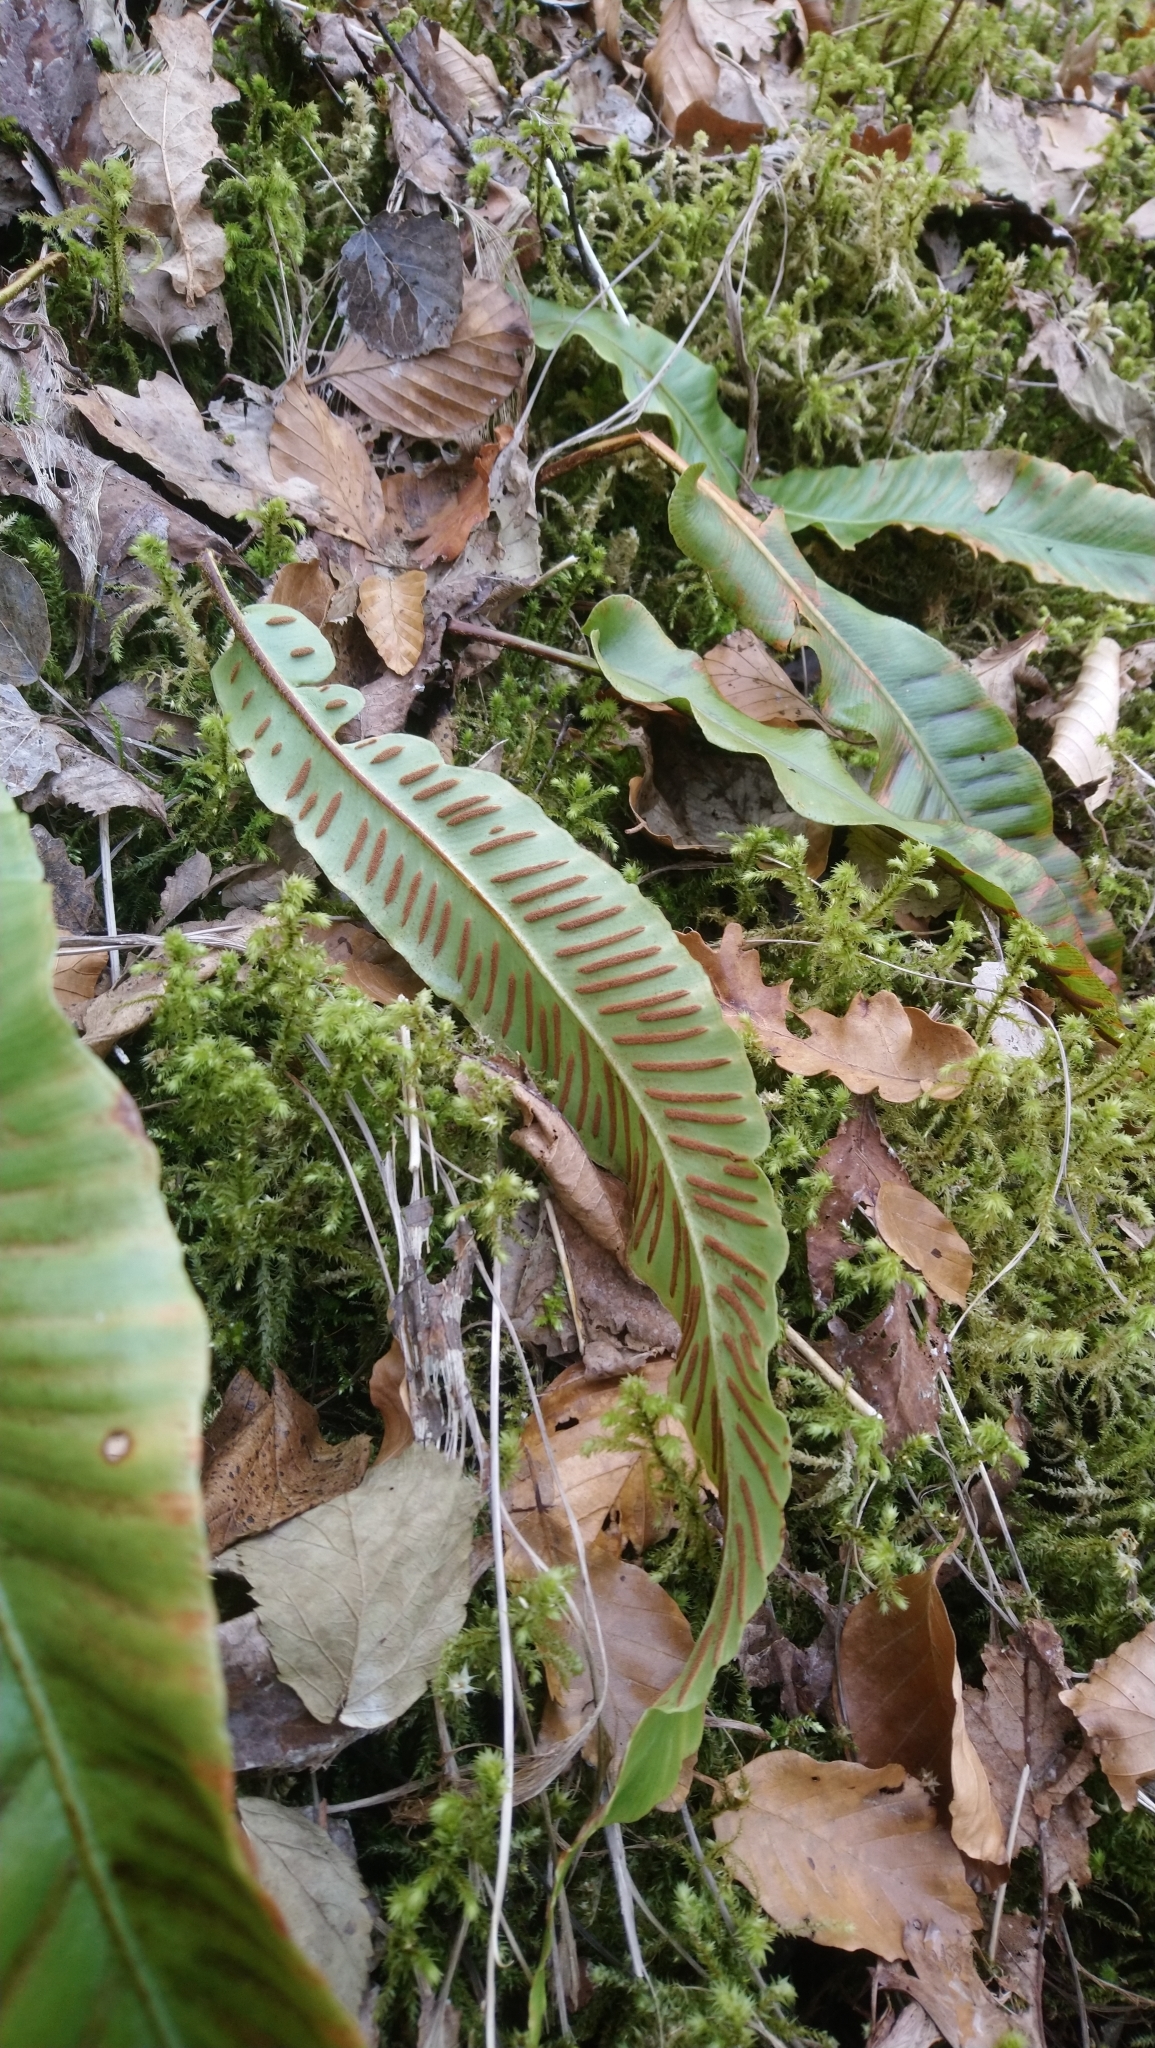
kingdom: Plantae
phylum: Tracheophyta
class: Polypodiopsida
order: Polypodiales
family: Aspleniaceae
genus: Asplenium
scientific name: Asplenium scolopendrium
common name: Hart's-tongue fern
